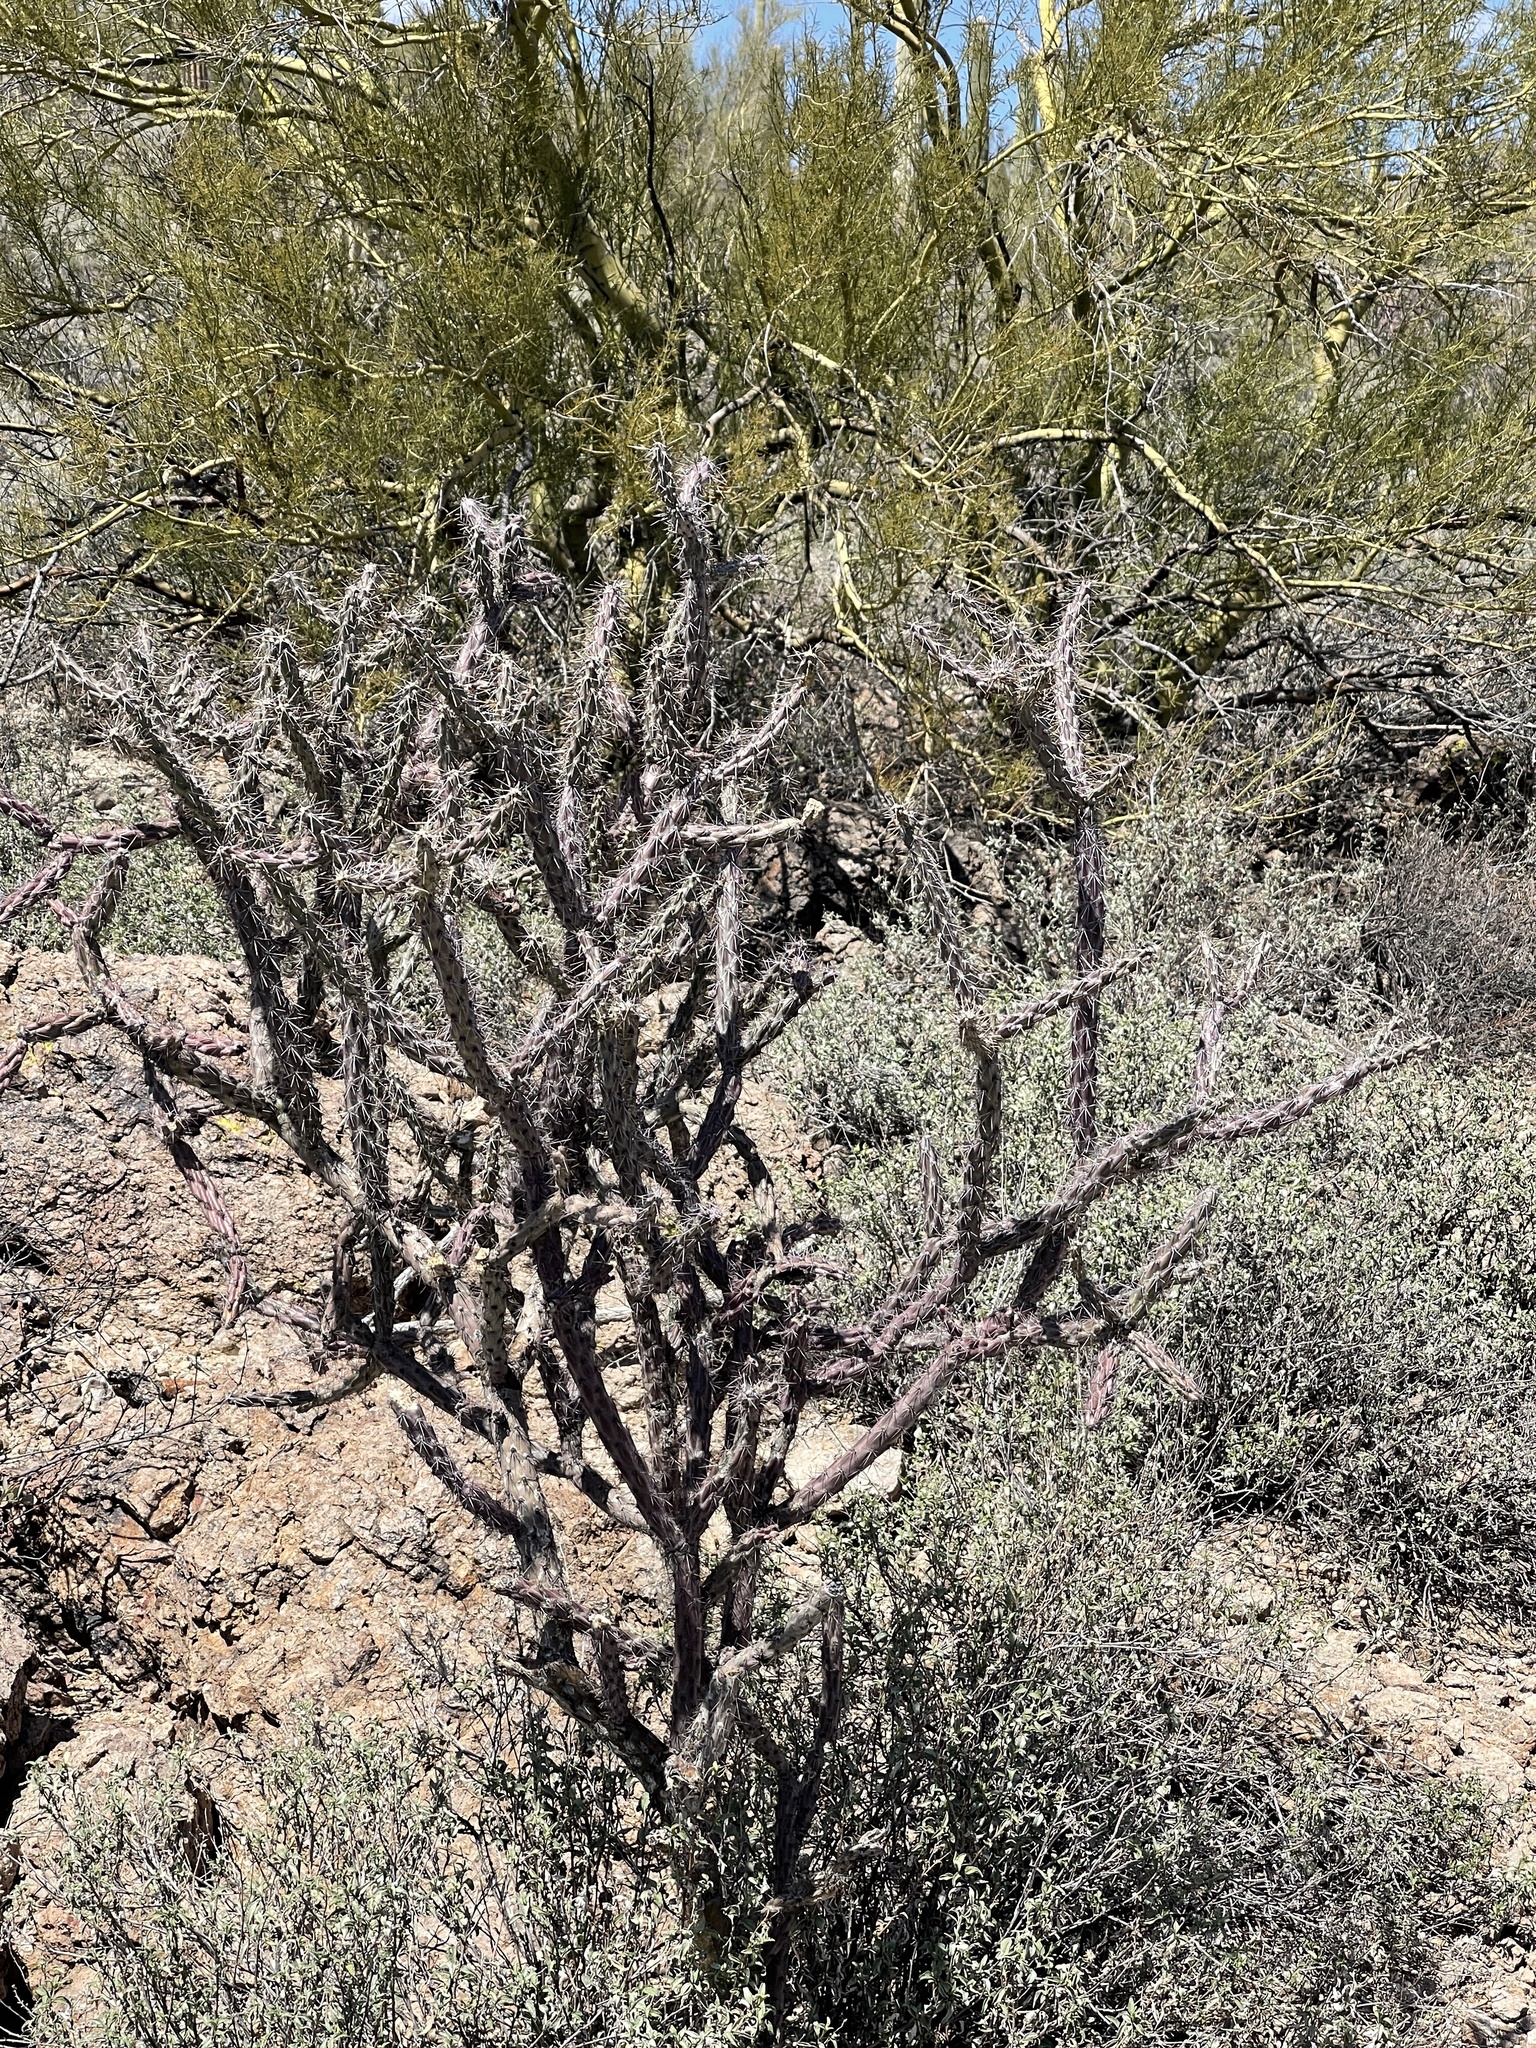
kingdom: Plantae
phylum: Tracheophyta
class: Magnoliopsida
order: Caryophyllales
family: Cactaceae
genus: Cylindropuntia
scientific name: Cylindropuntia thurberi
